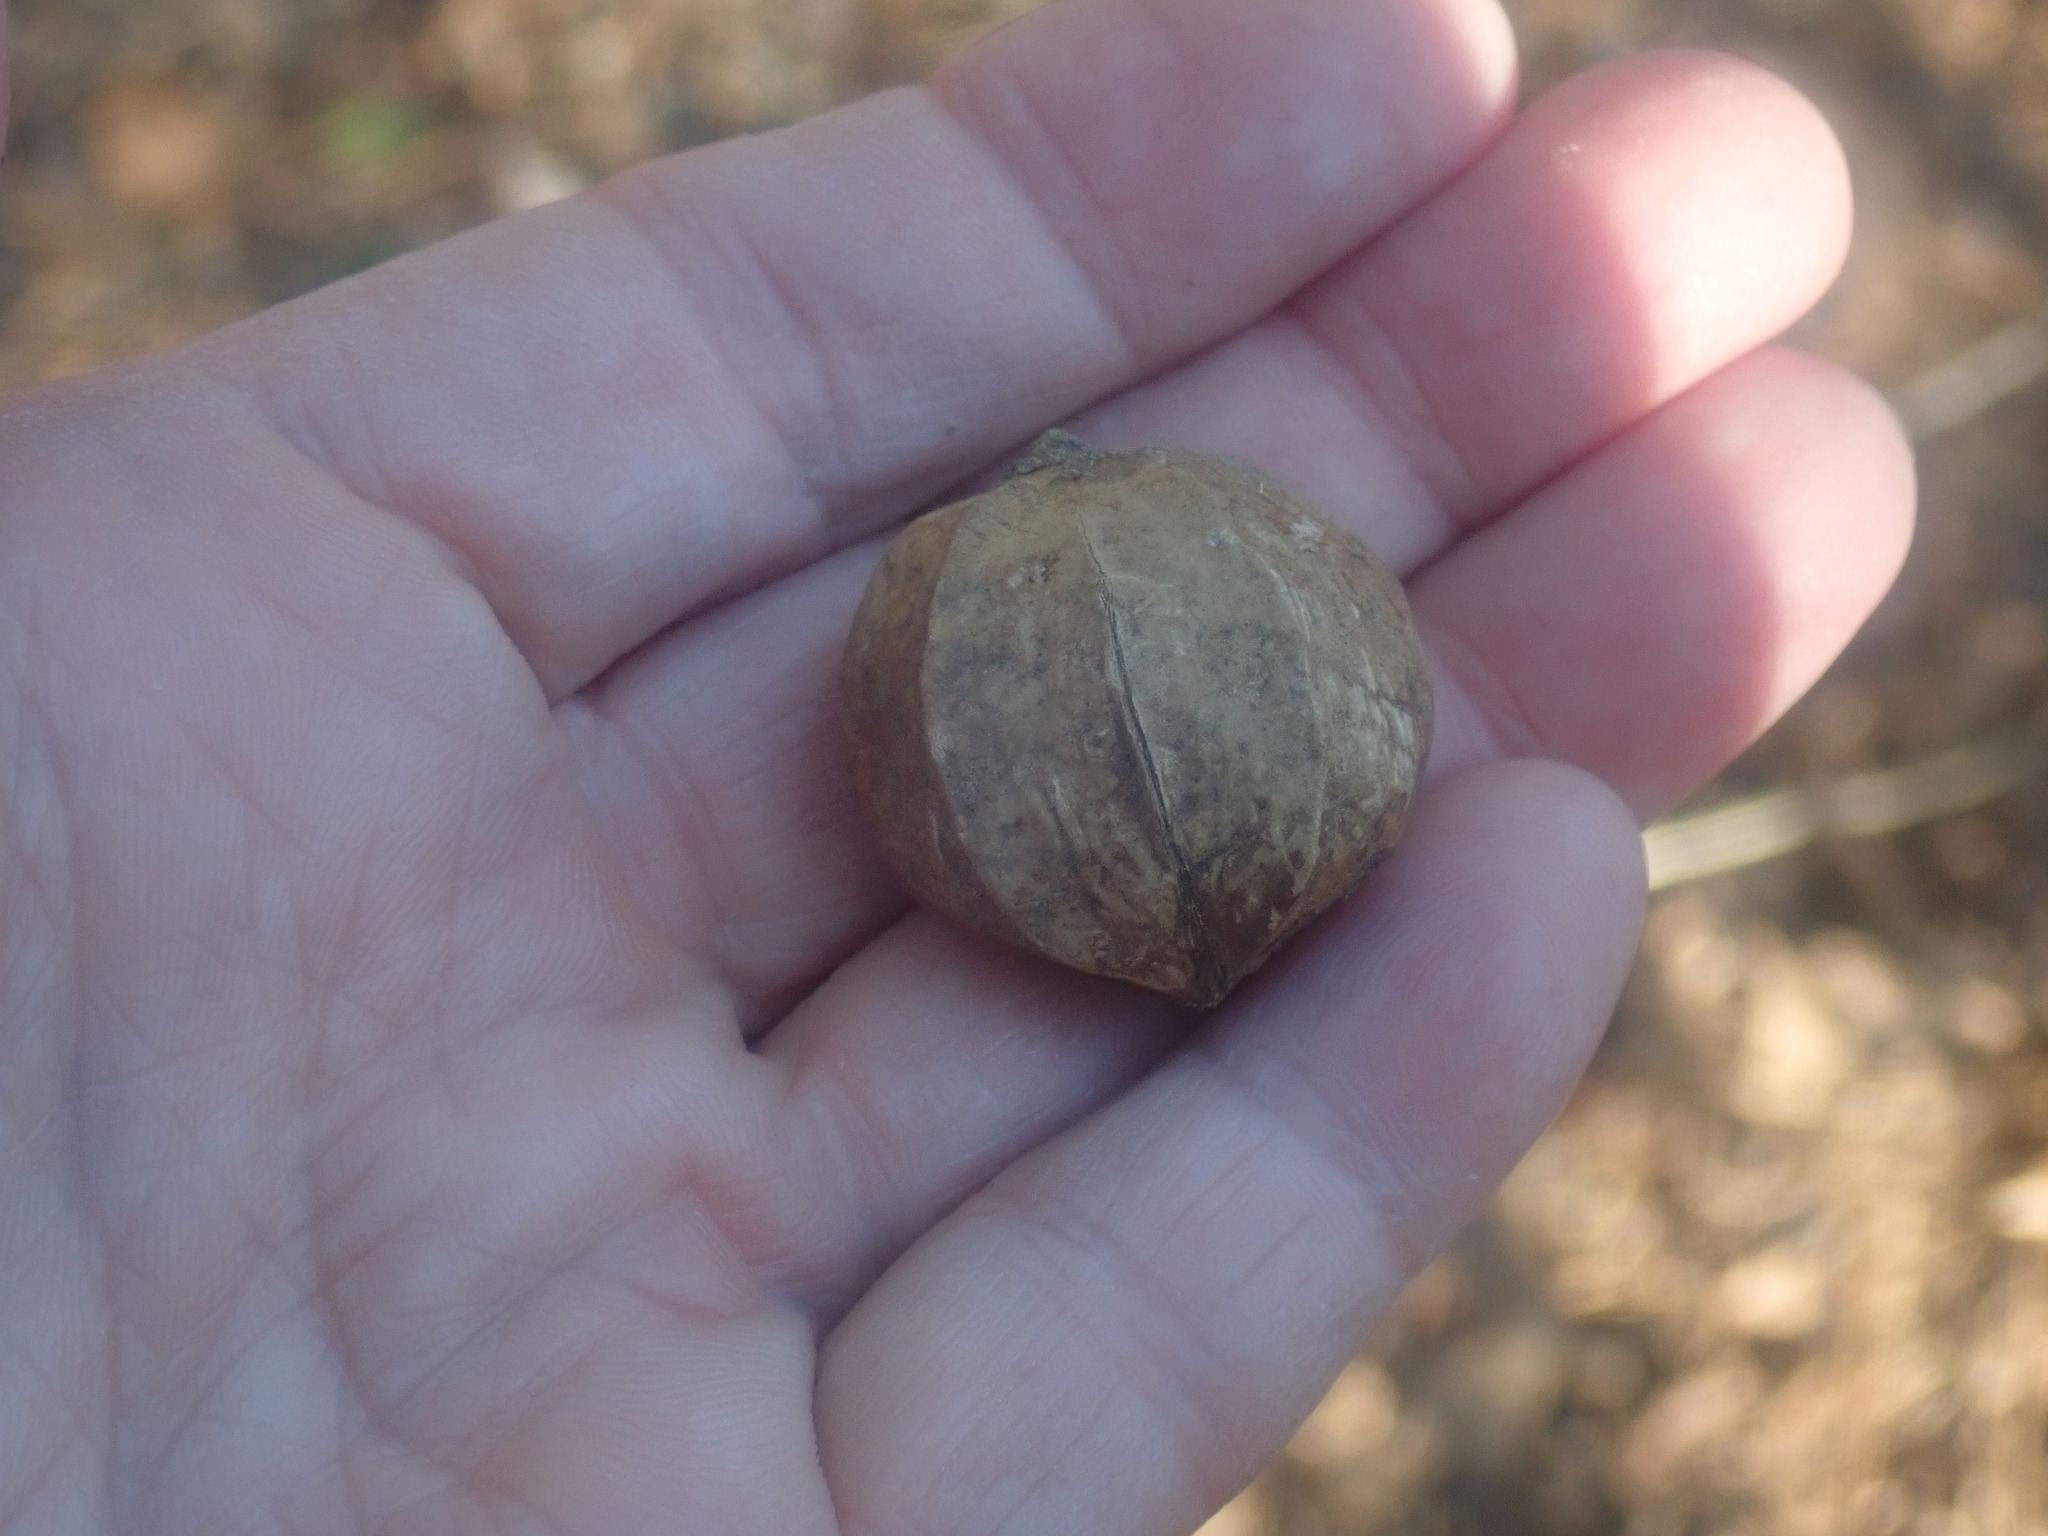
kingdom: Plantae
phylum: Tracheophyta
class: Magnoliopsida
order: Fagales
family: Juglandaceae
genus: Carya
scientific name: Carya ovata
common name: Shagbark hickory
